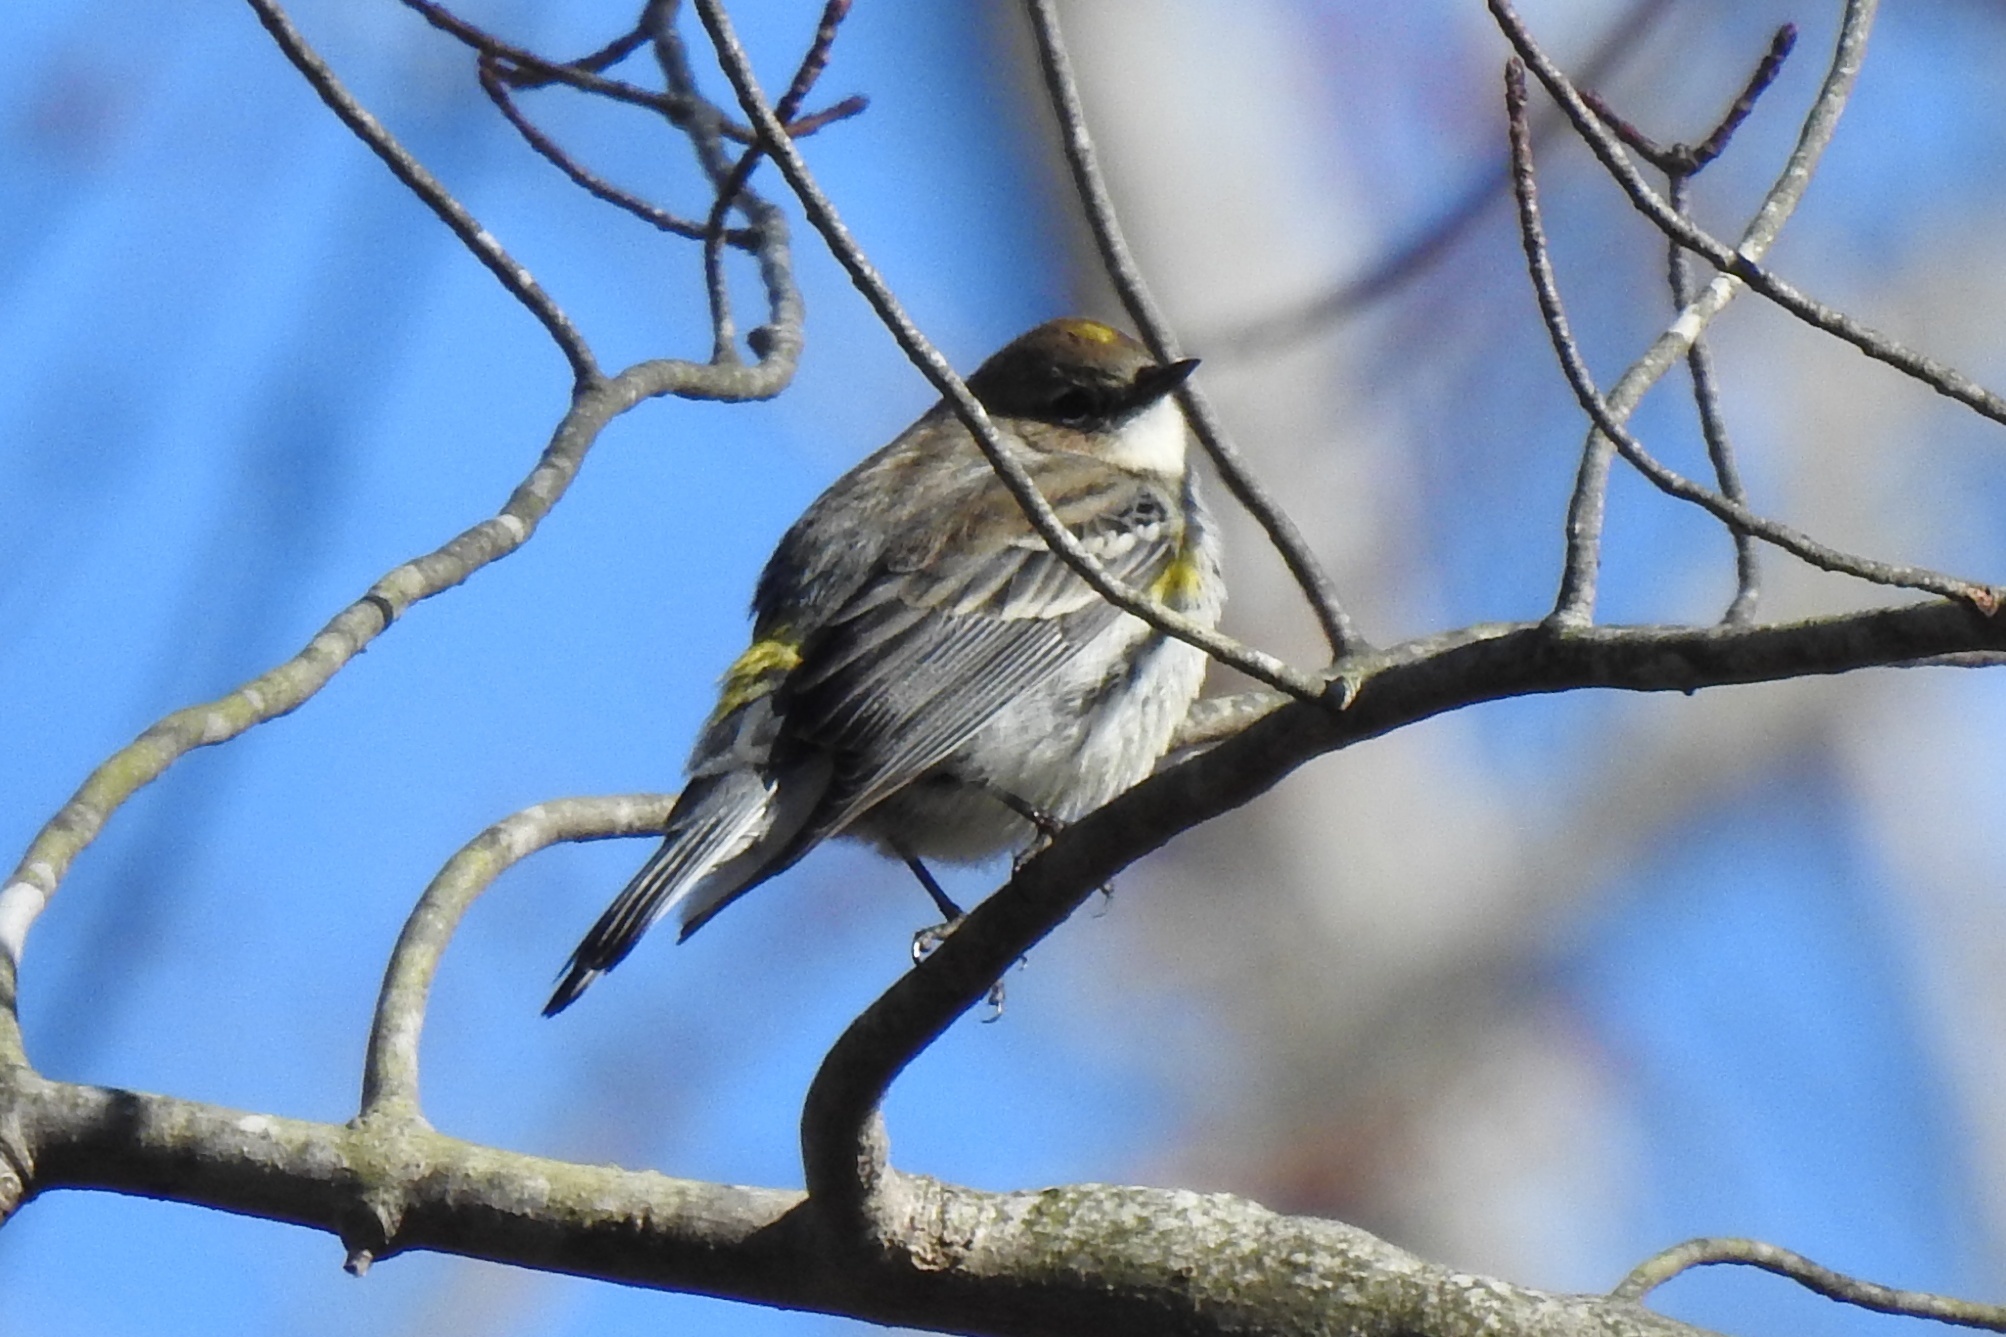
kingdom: Animalia
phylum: Chordata
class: Aves
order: Passeriformes
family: Parulidae
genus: Setophaga
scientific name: Setophaga coronata
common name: Myrtle warbler
